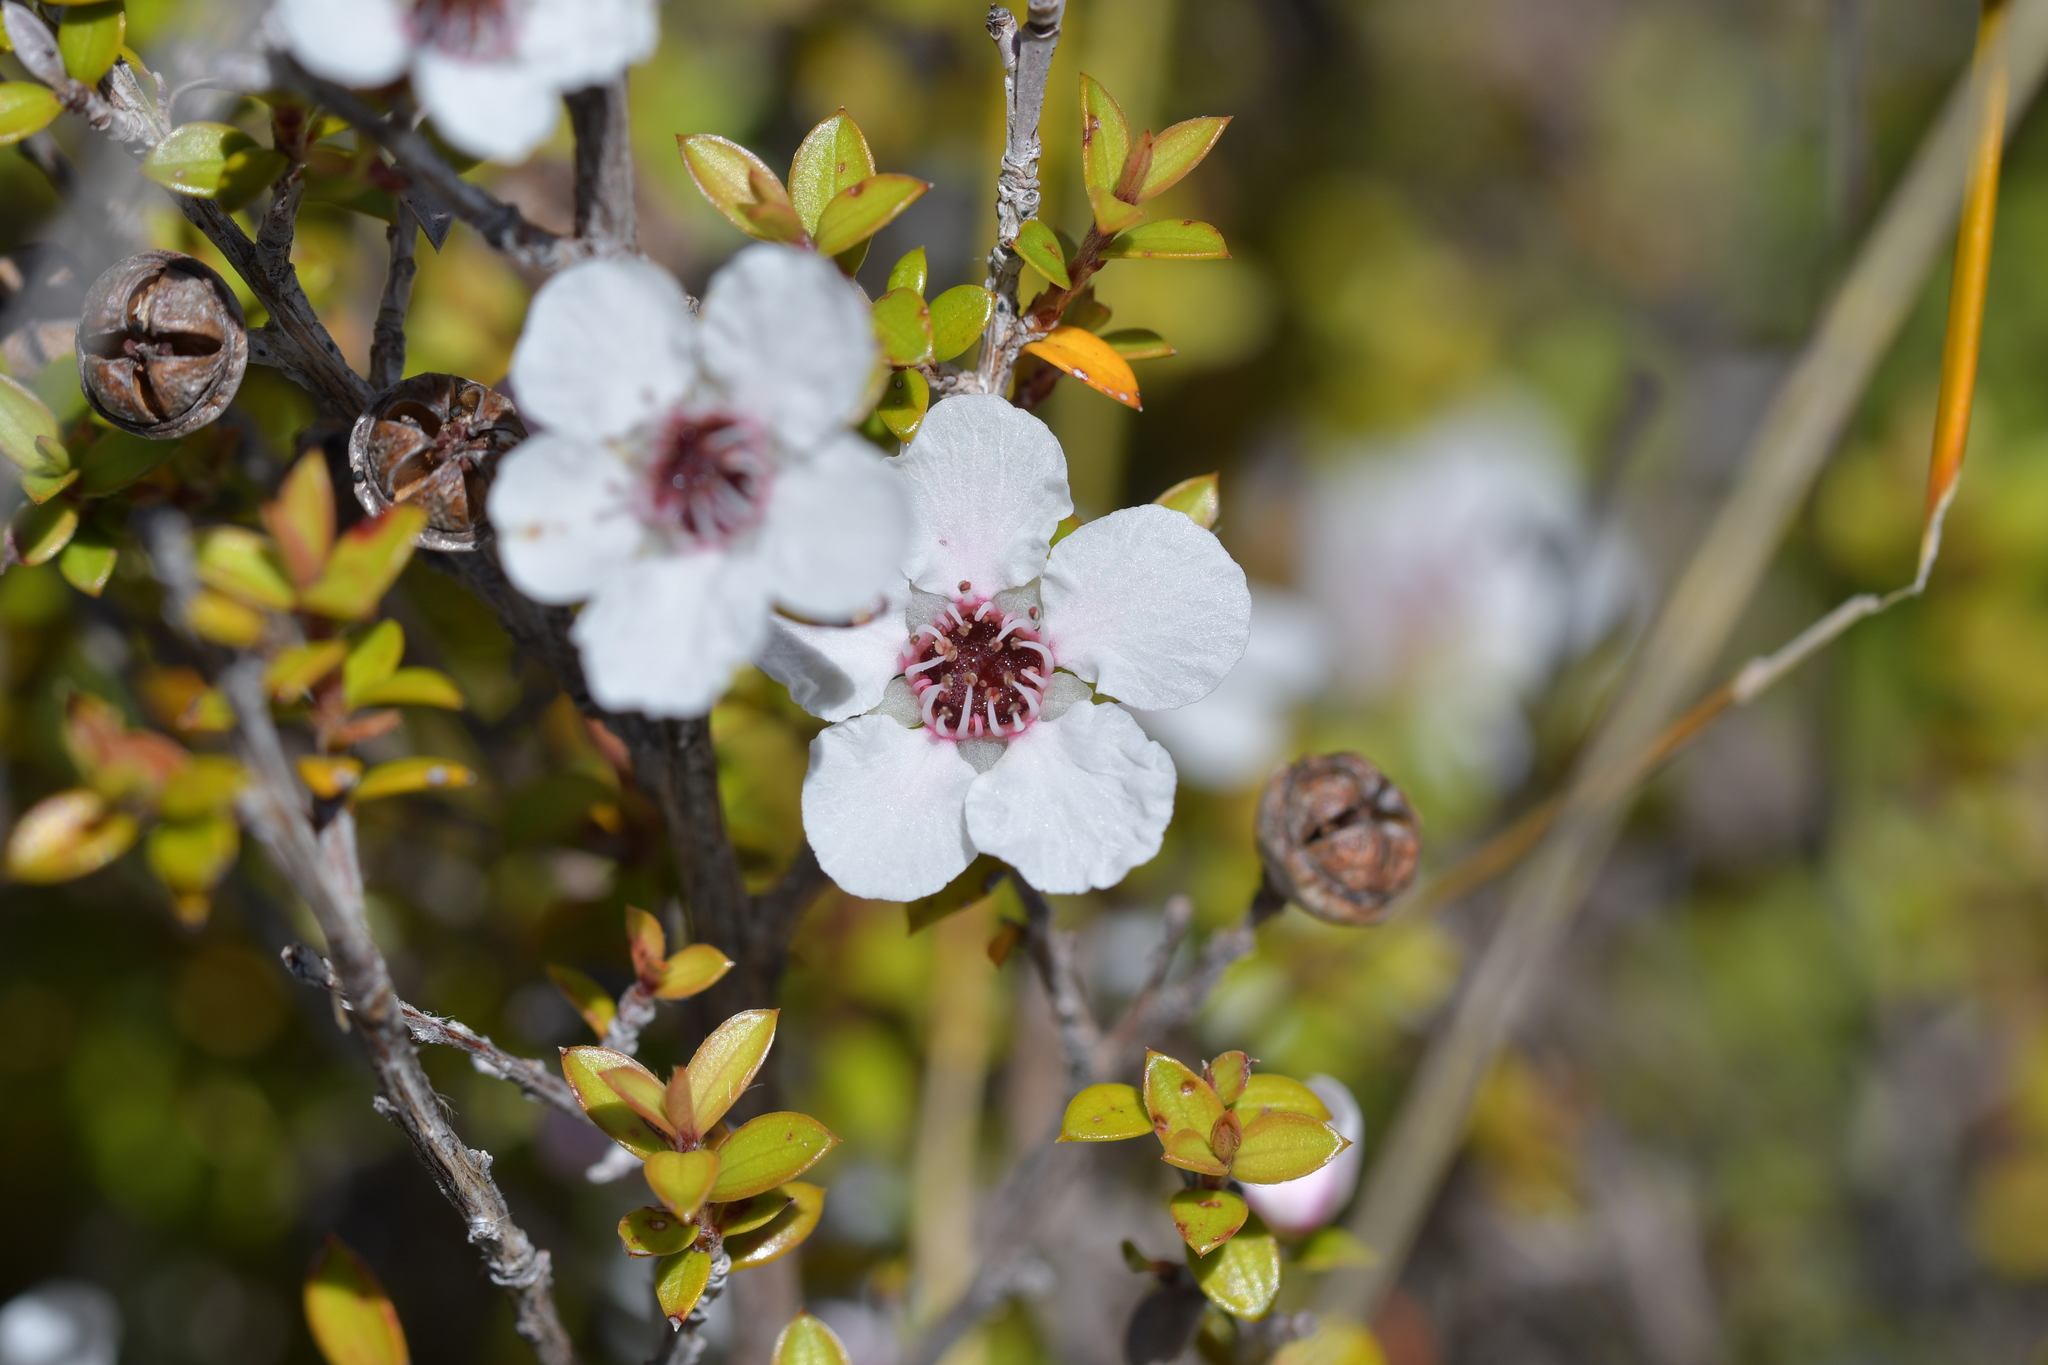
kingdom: Plantae
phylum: Tracheophyta
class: Magnoliopsida
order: Myrtales
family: Myrtaceae
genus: Leptospermum
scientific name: Leptospermum scoparium
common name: Broom tea-tree
